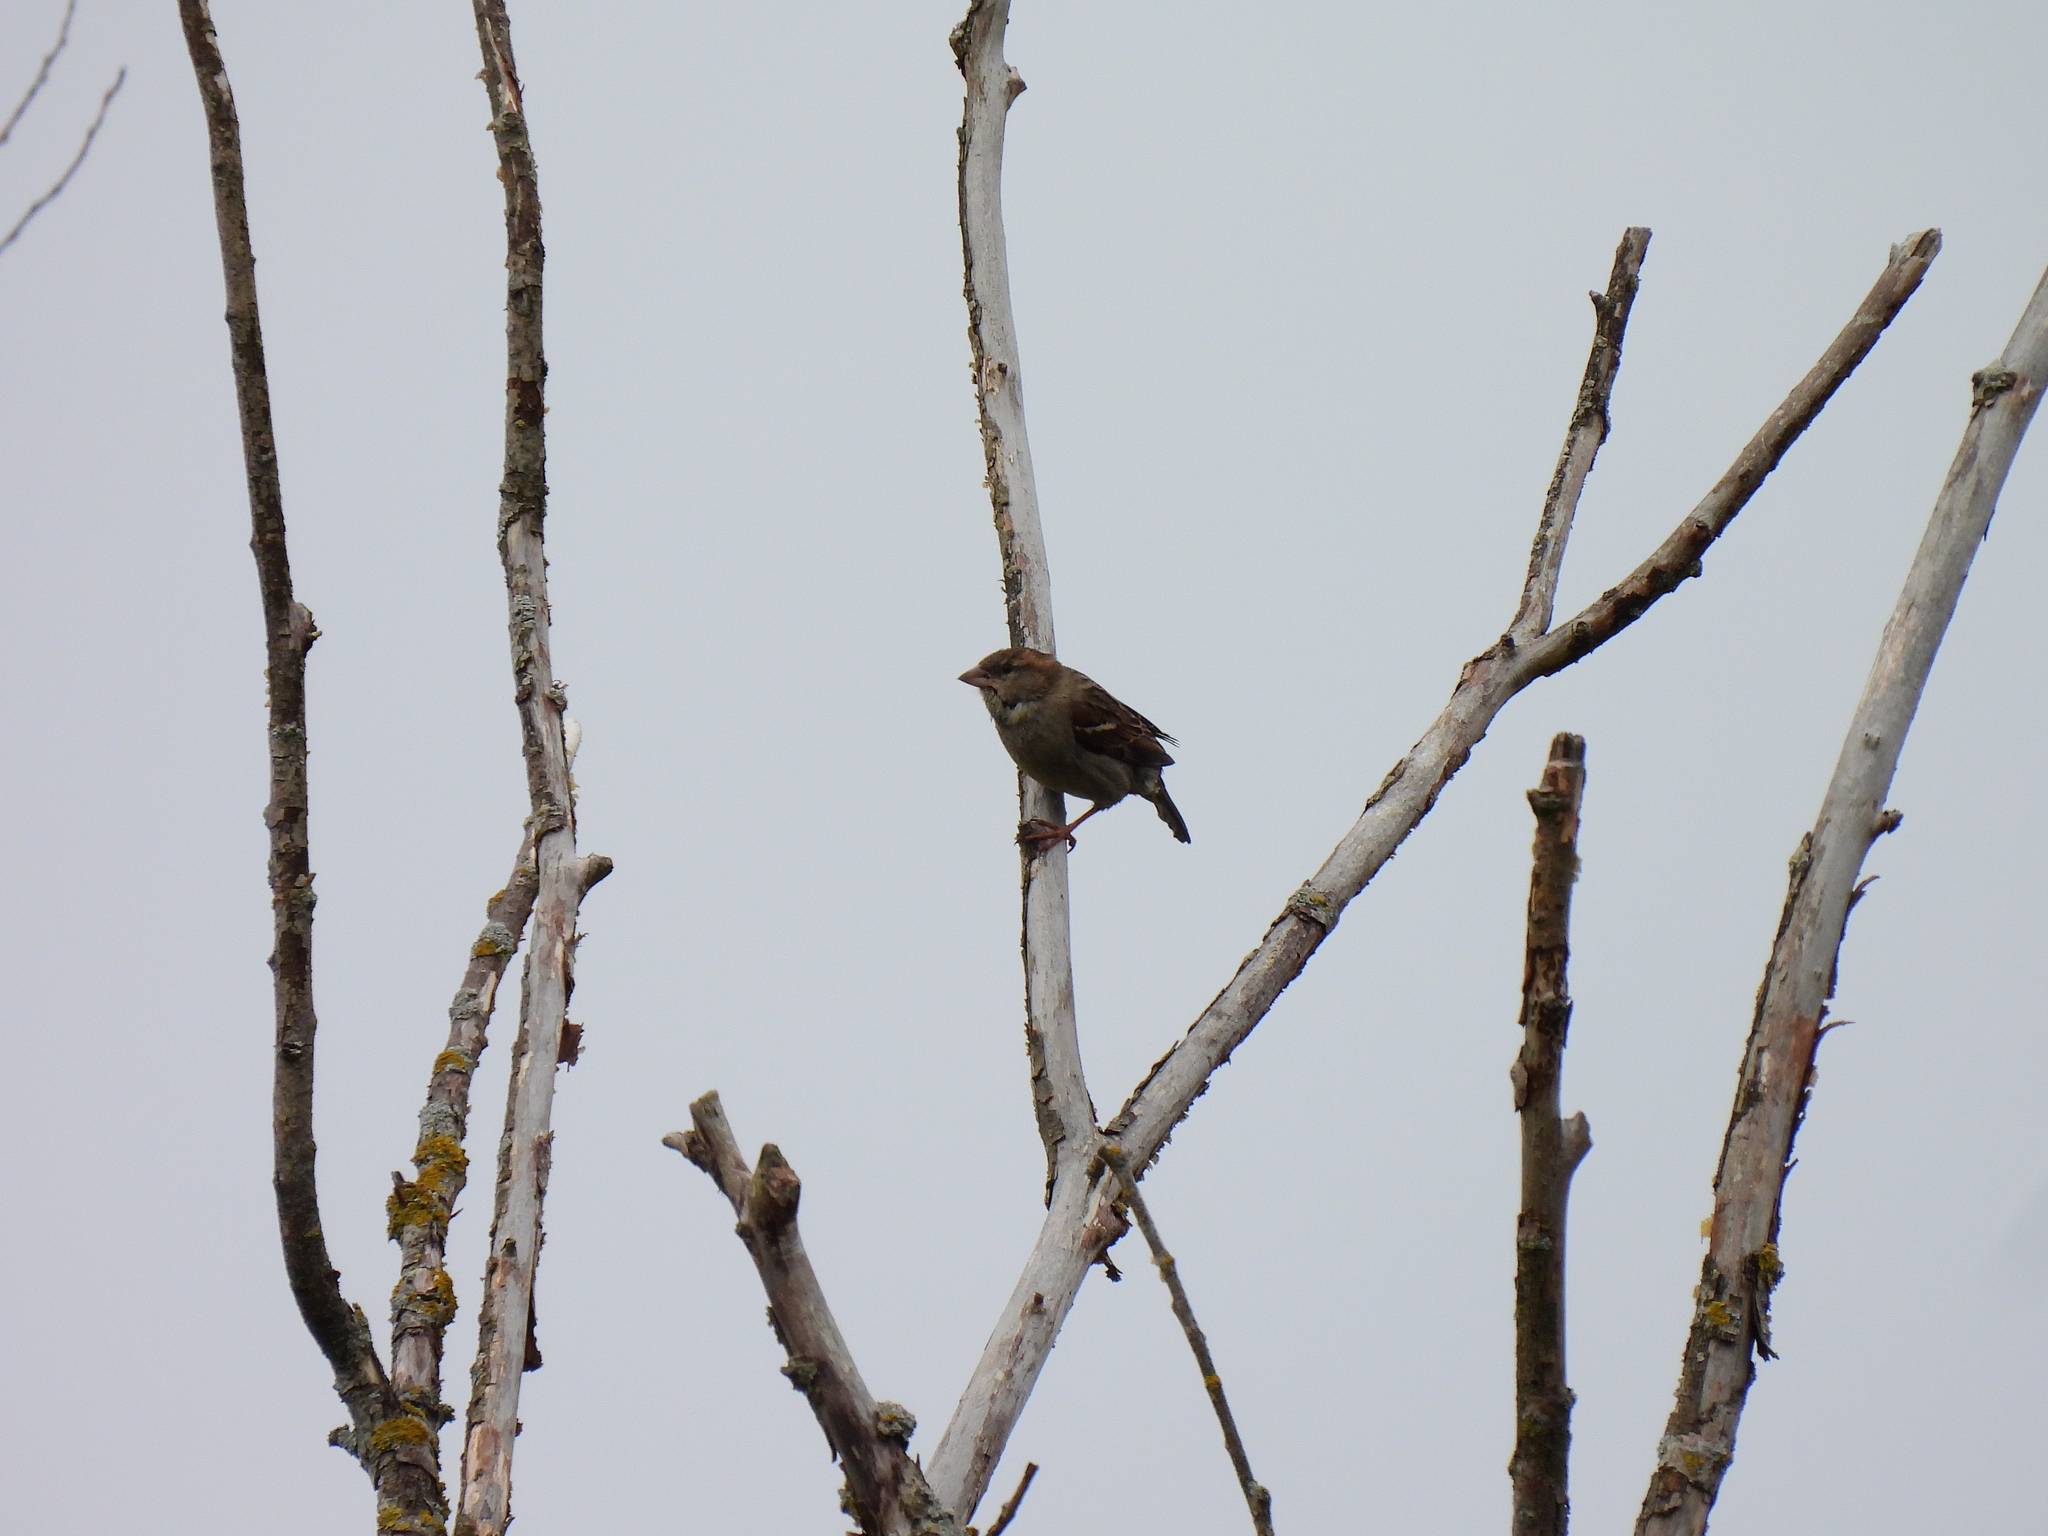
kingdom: Animalia
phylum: Chordata
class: Aves
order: Passeriformes
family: Passeridae
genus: Passer
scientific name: Passer domesticus
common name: House sparrow
